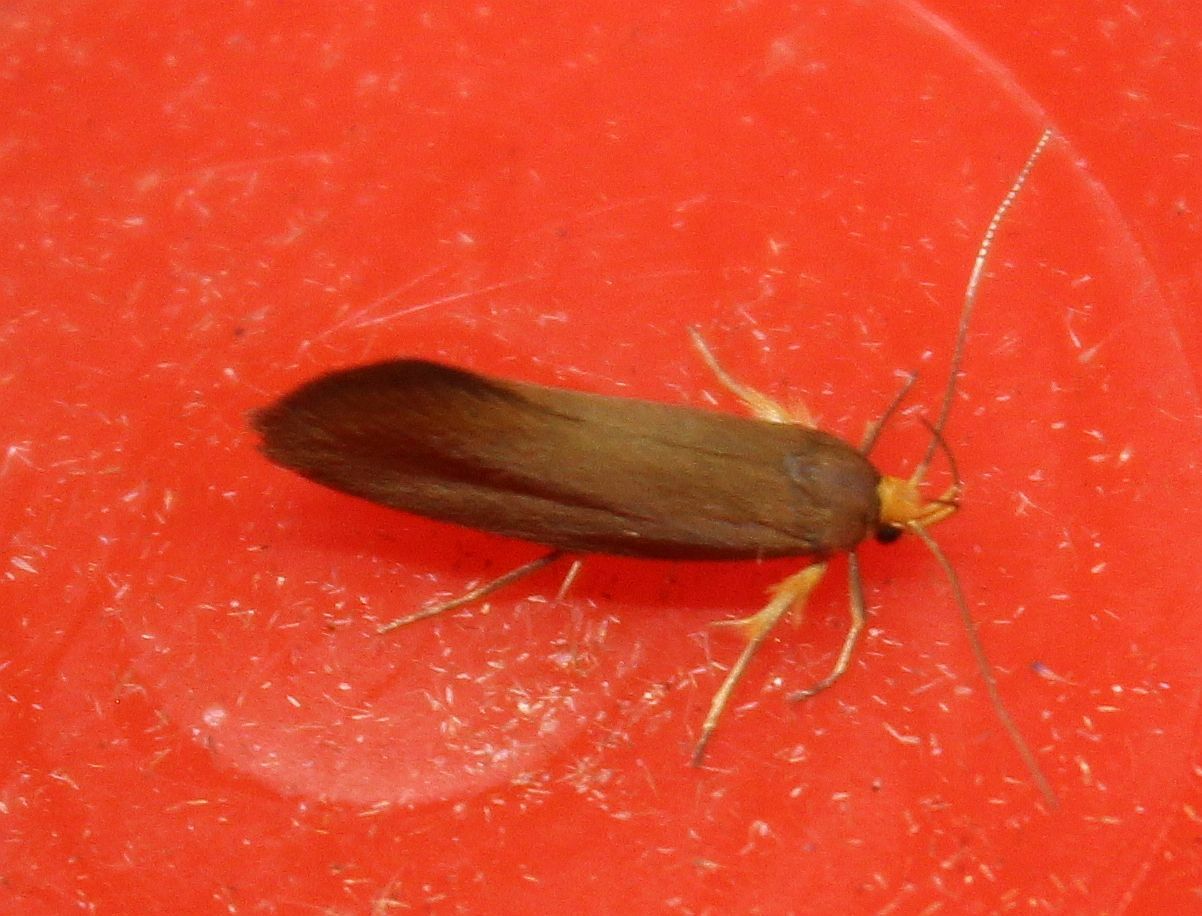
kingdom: Animalia
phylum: Arthropoda
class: Insecta
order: Lepidoptera
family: Oecophoridae
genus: Borkhausenia
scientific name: Borkhausenia Crassa unitella
